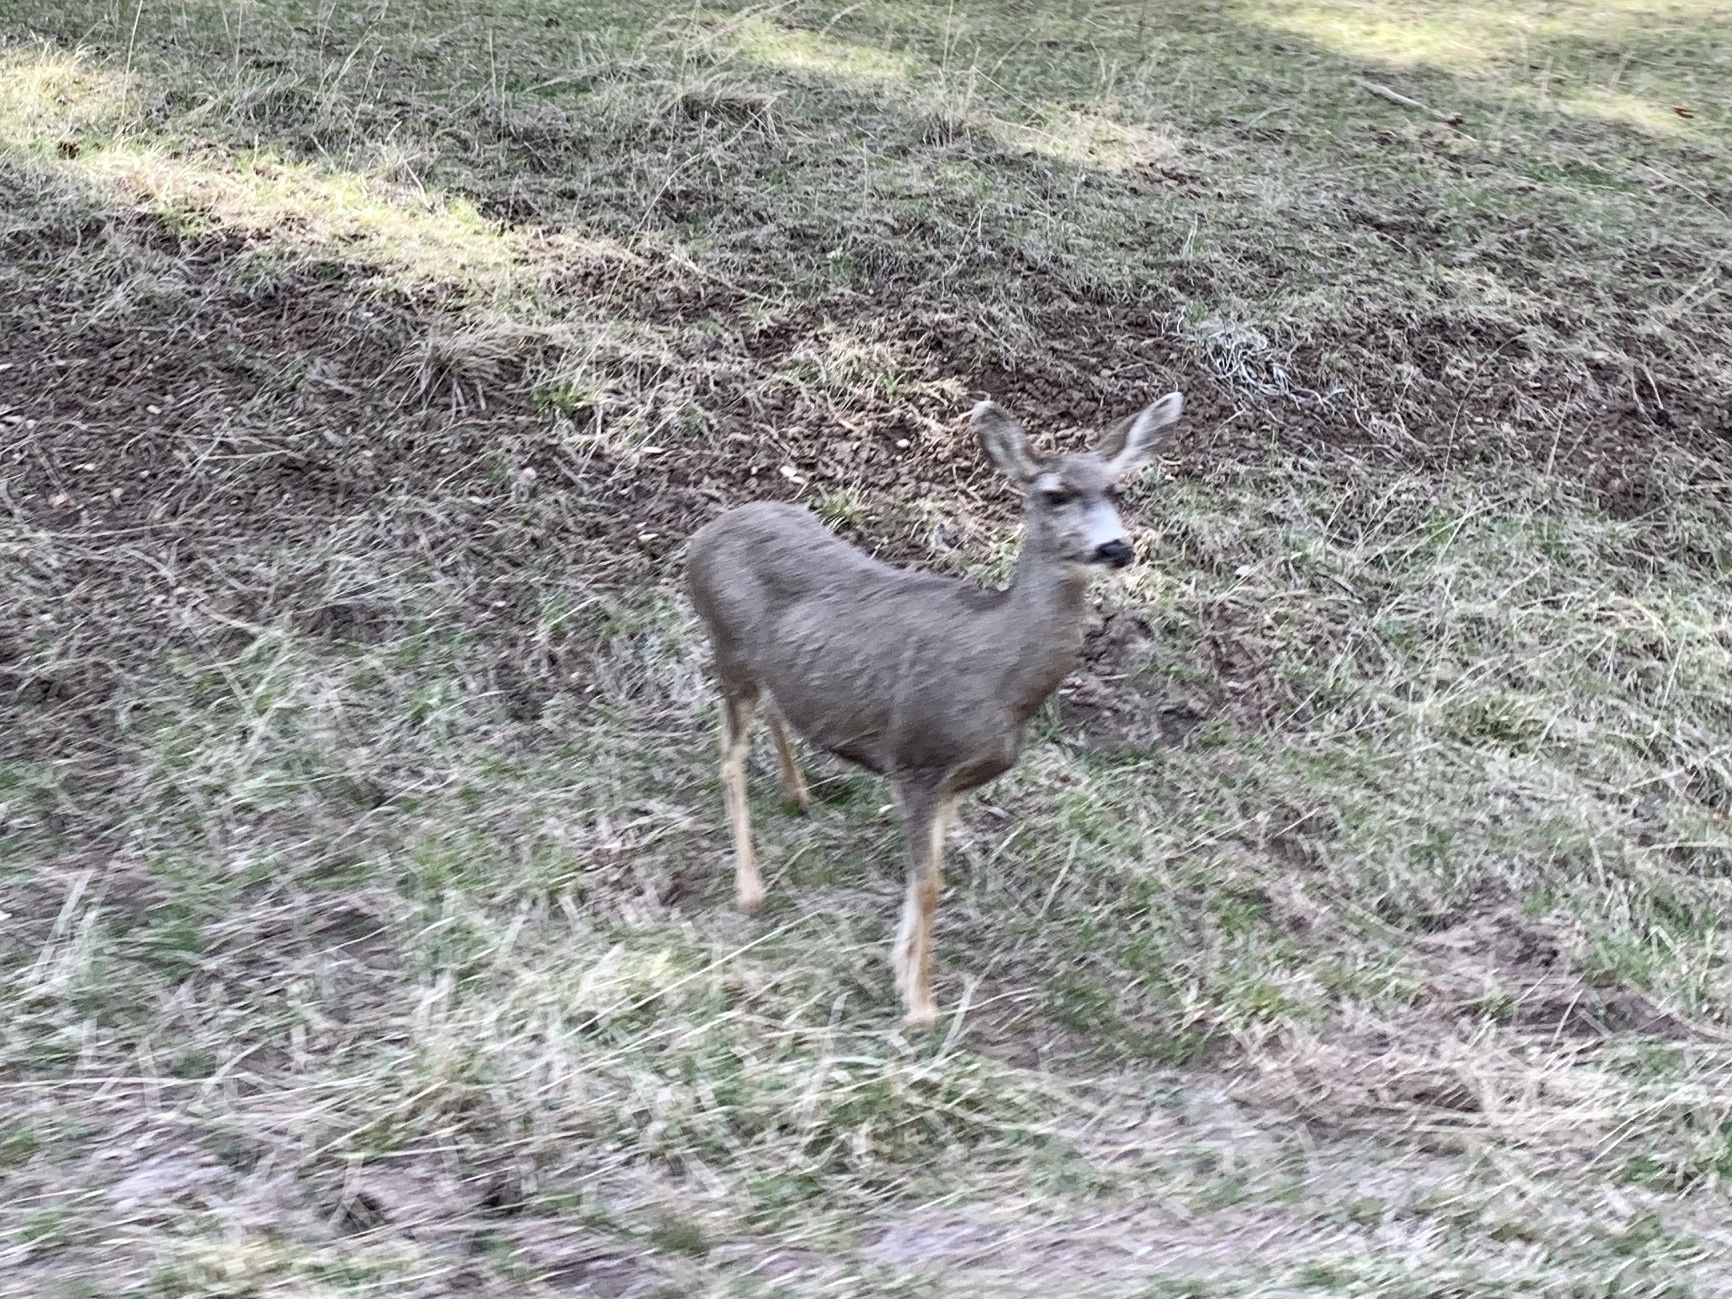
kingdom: Animalia
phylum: Chordata
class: Mammalia
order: Artiodactyla
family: Cervidae
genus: Odocoileus
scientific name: Odocoileus hemionus
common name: Mule deer
